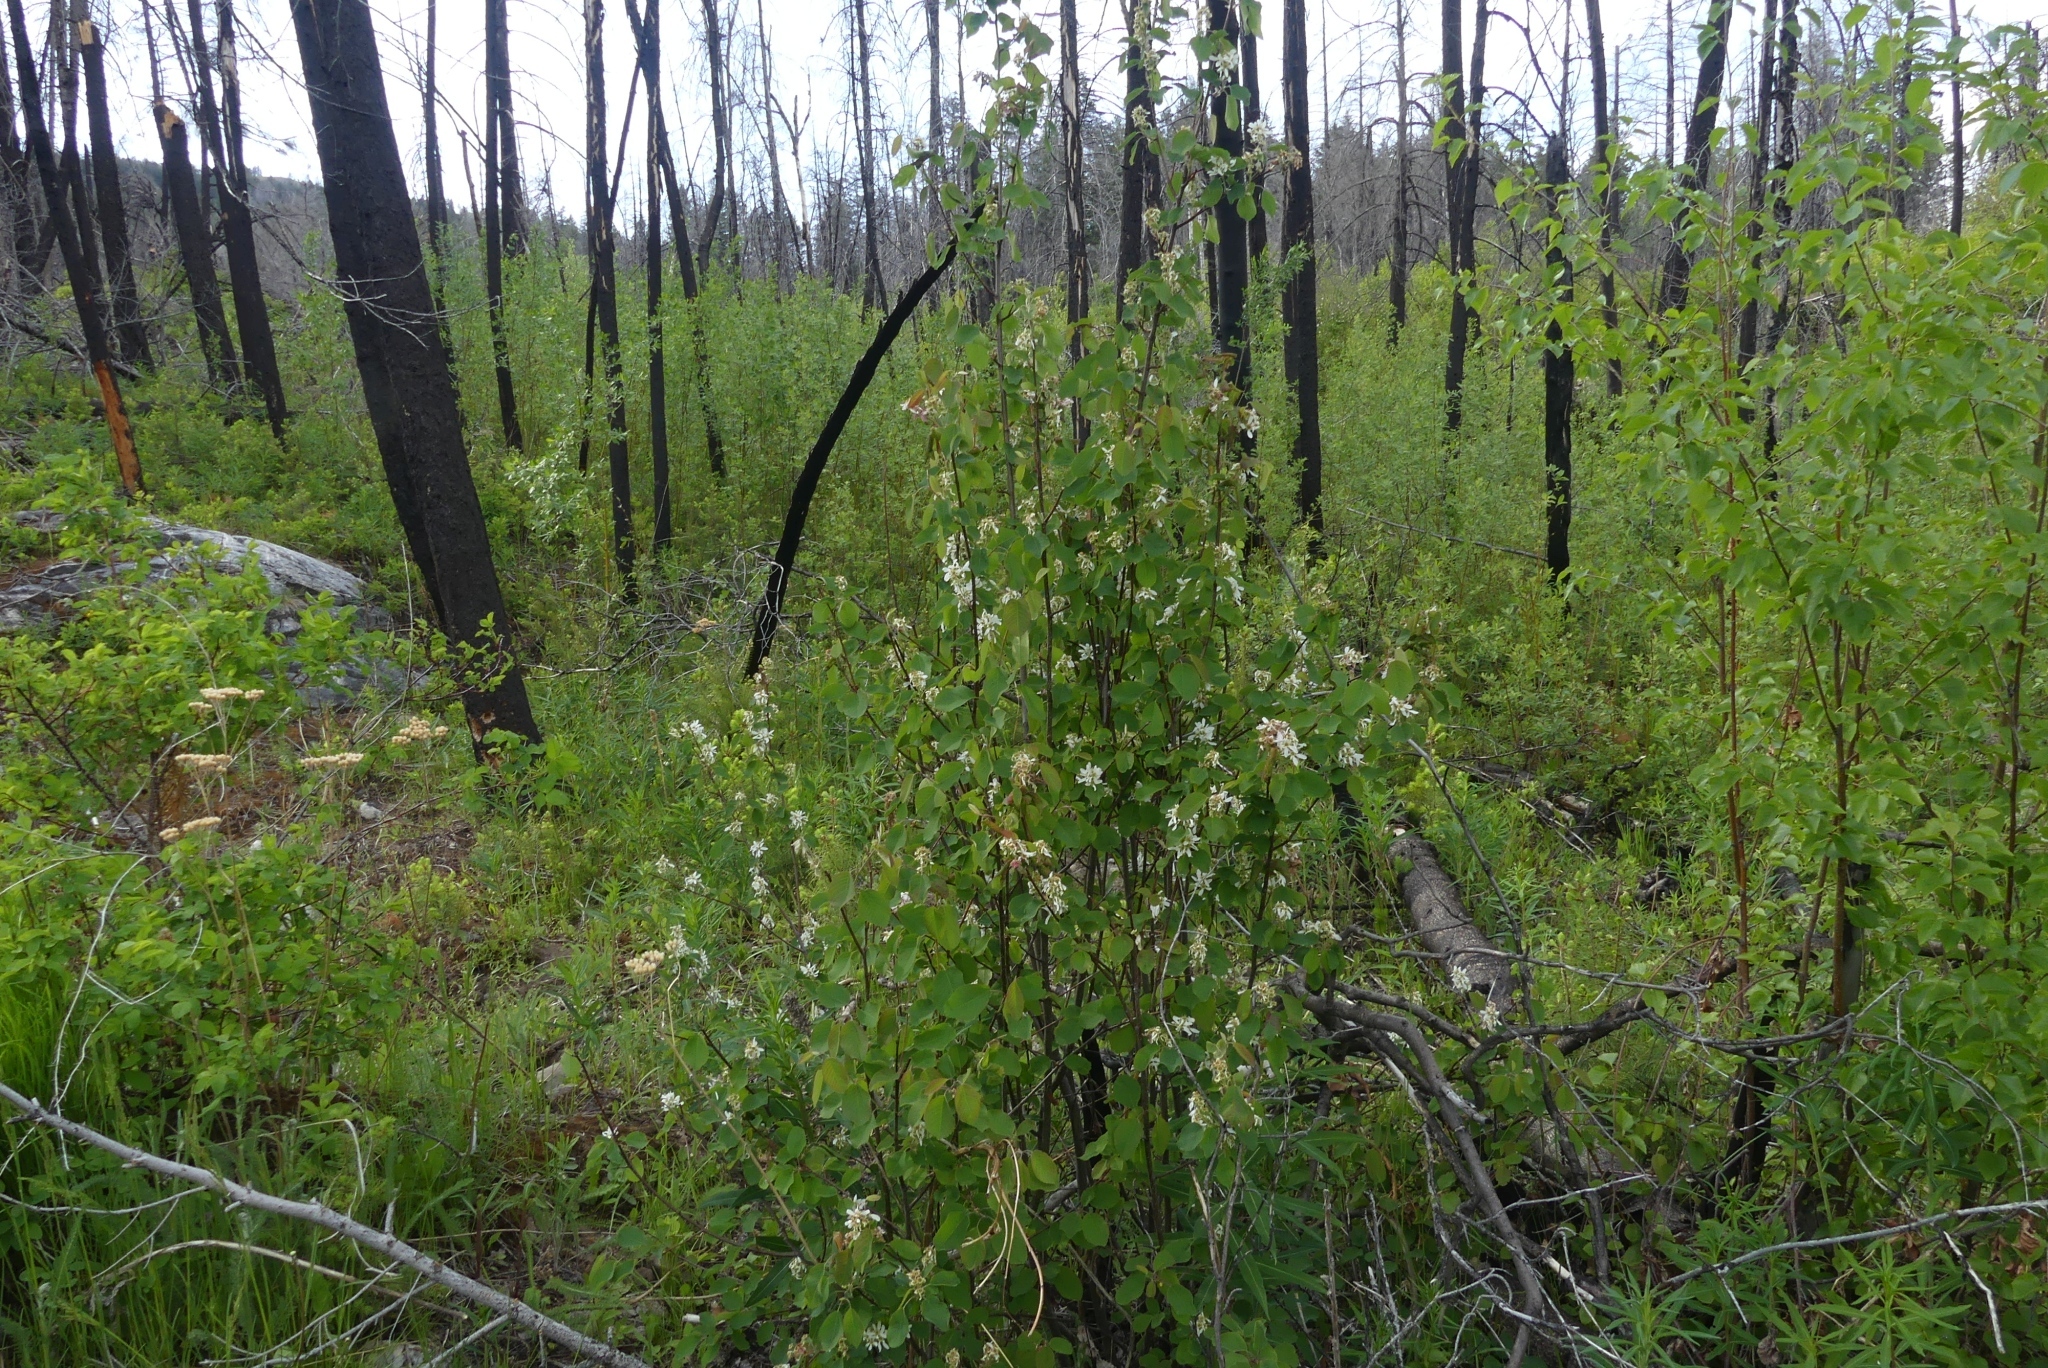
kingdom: Plantae
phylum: Tracheophyta
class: Magnoliopsida
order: Rosales
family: Rosaceae
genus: Amelanchier
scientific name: Amelanchier alnifolia
